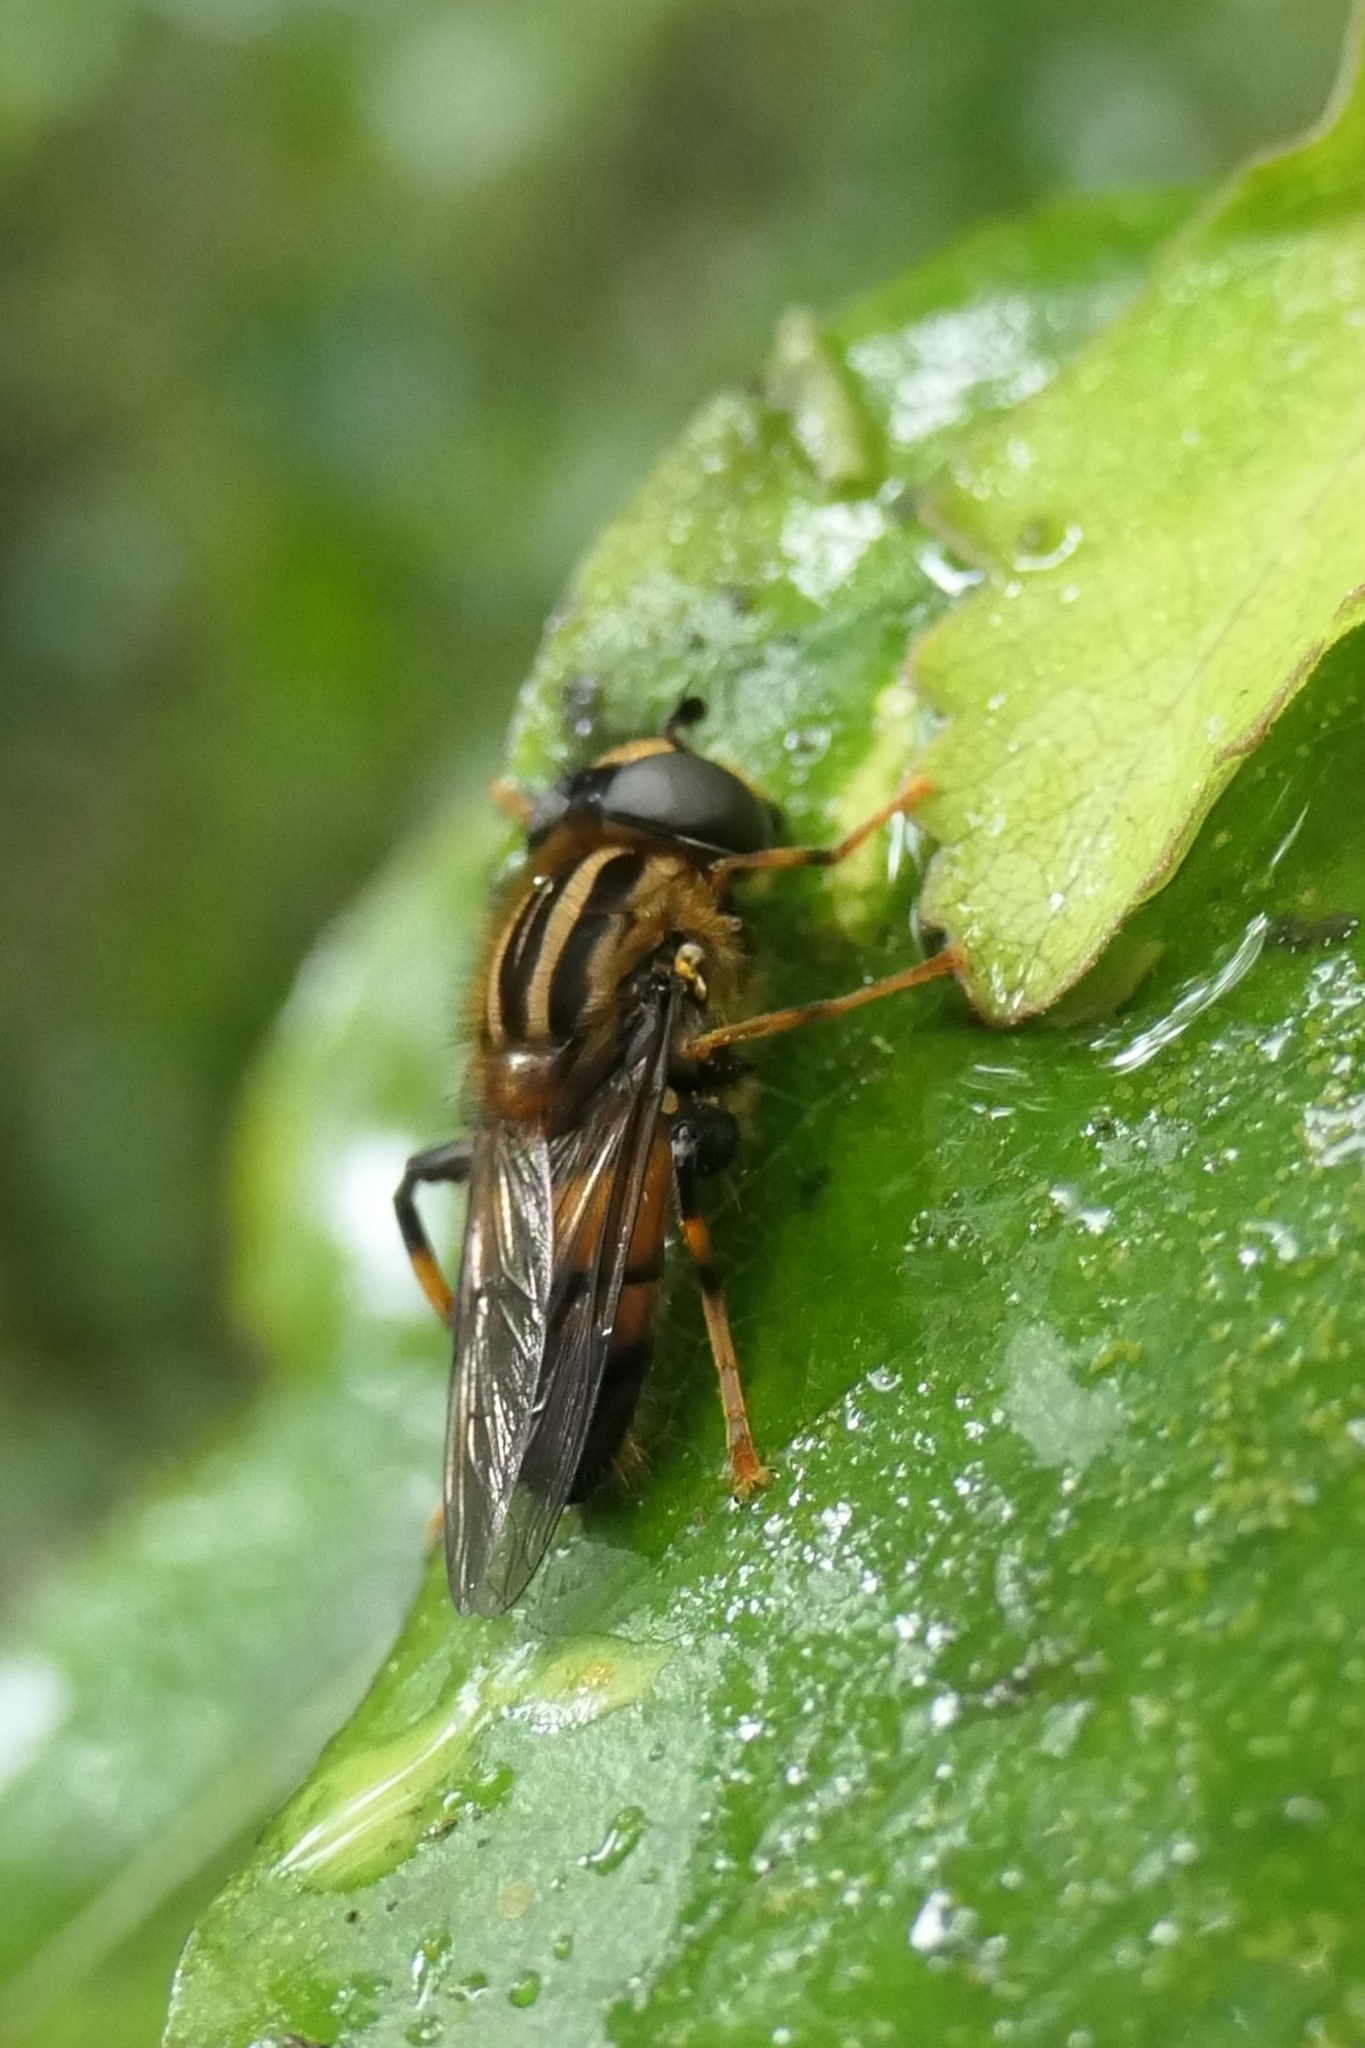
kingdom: Animalia
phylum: Arthropoda
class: Insecta
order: Diptera
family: Syrphidae
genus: Helophilus
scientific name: Helophilus antipodus
